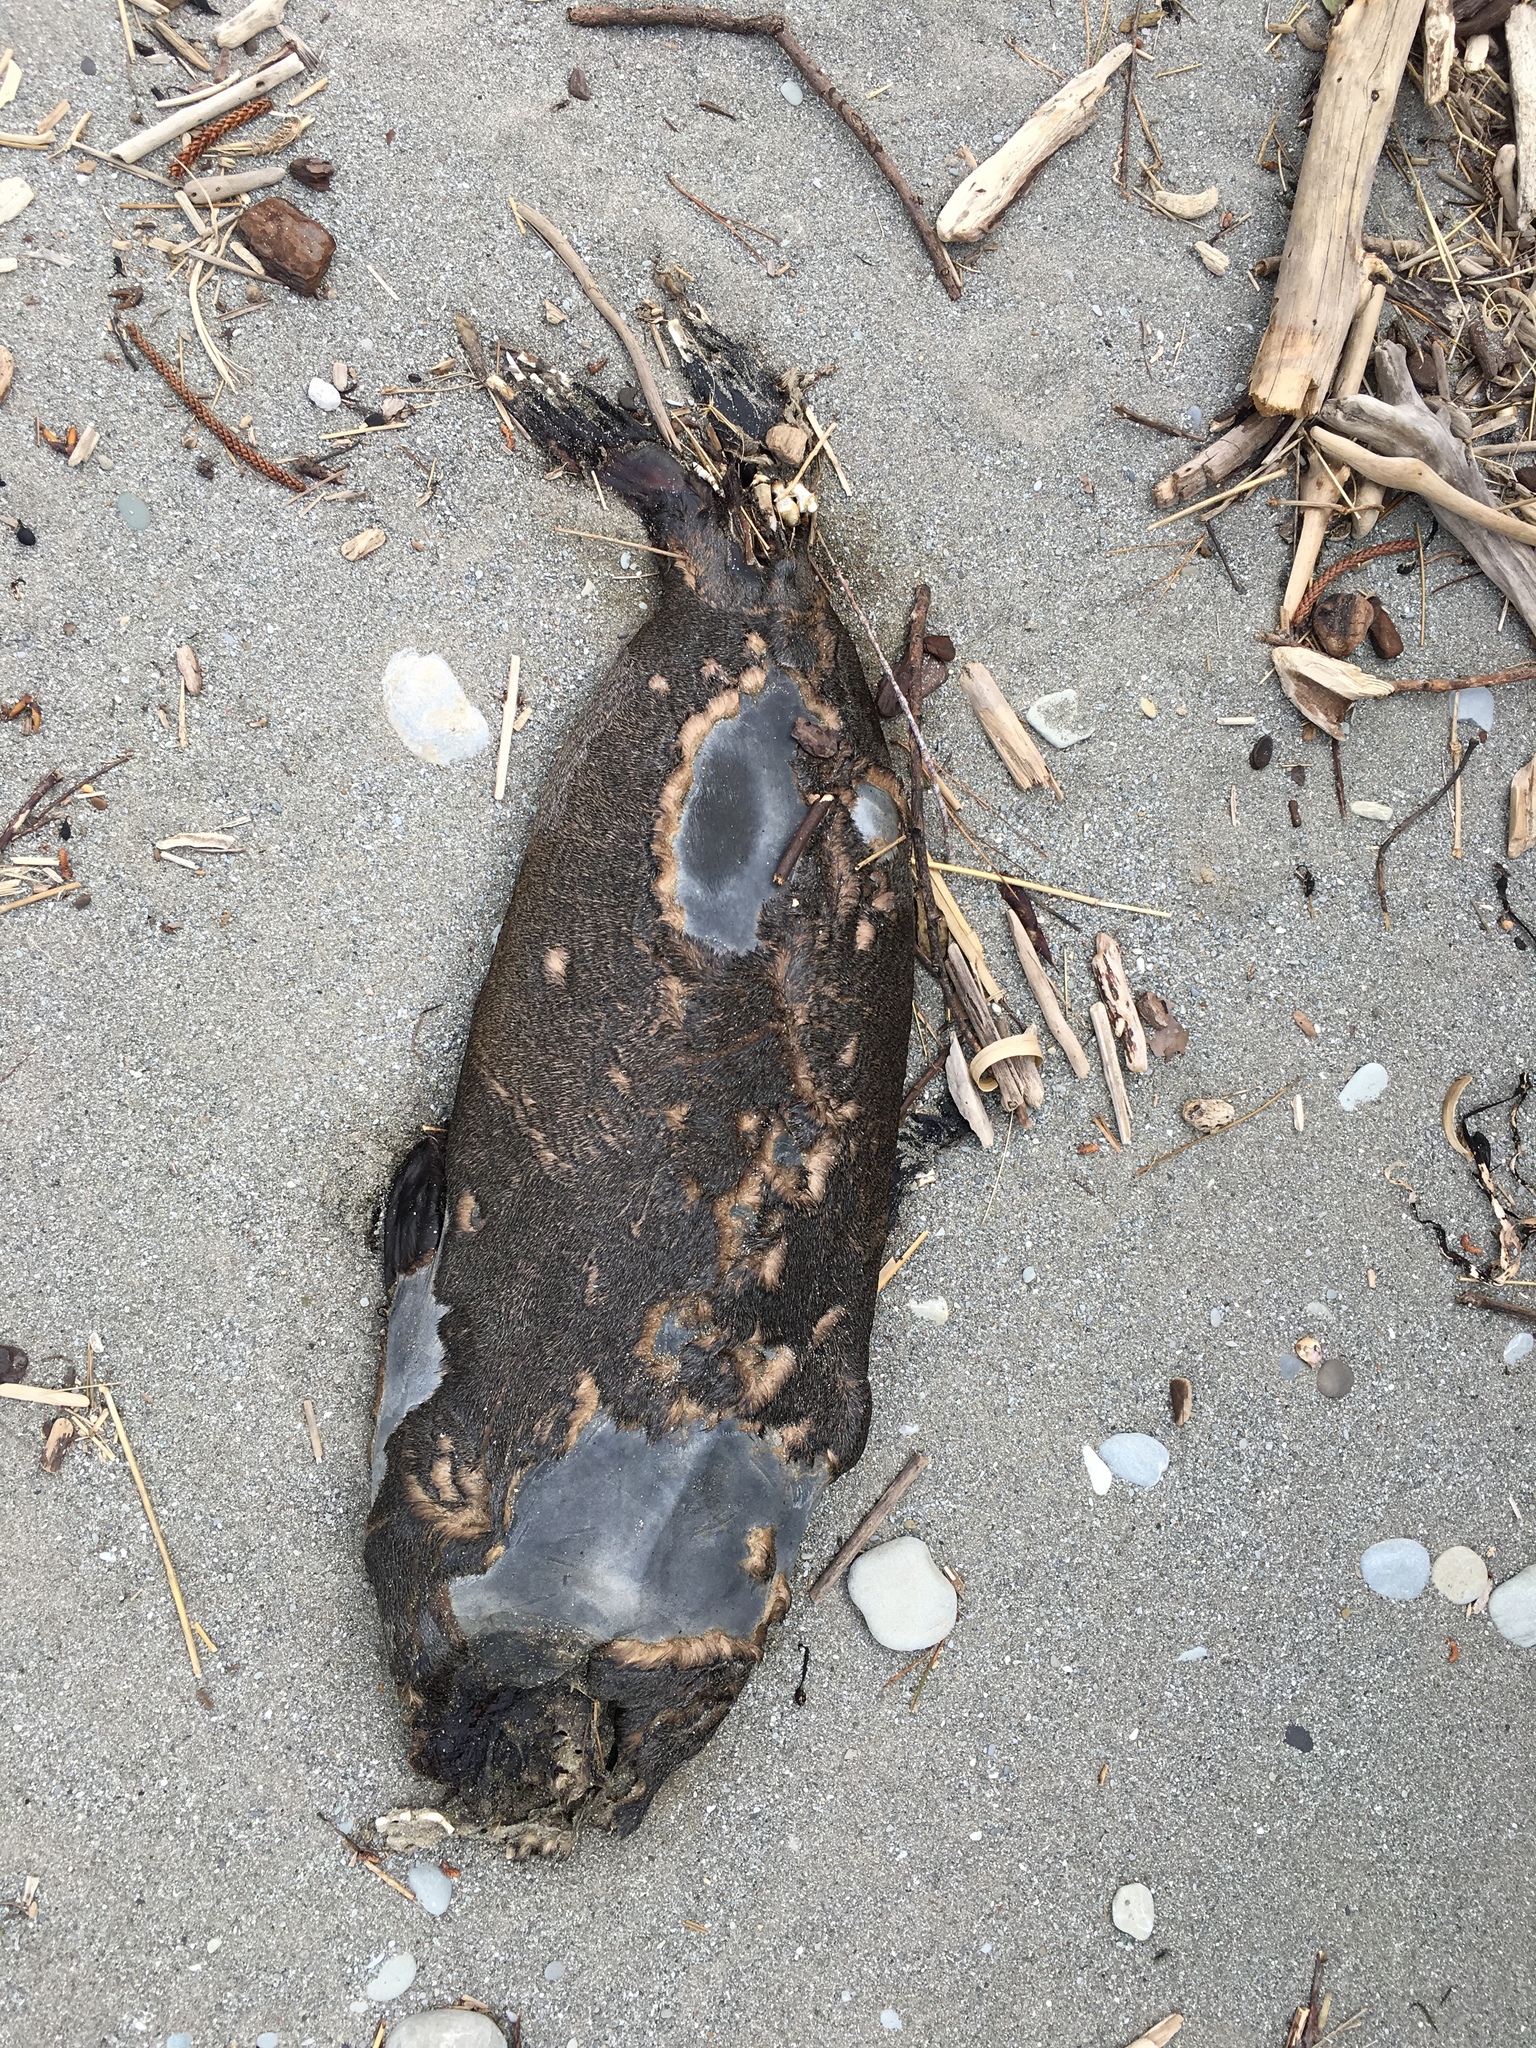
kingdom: Animalia
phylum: Chordata
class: Mammalia
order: Carnivora
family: Otariidae
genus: Arctocephalus
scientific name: Arctocephalus forsteri
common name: New zealand fur seal
